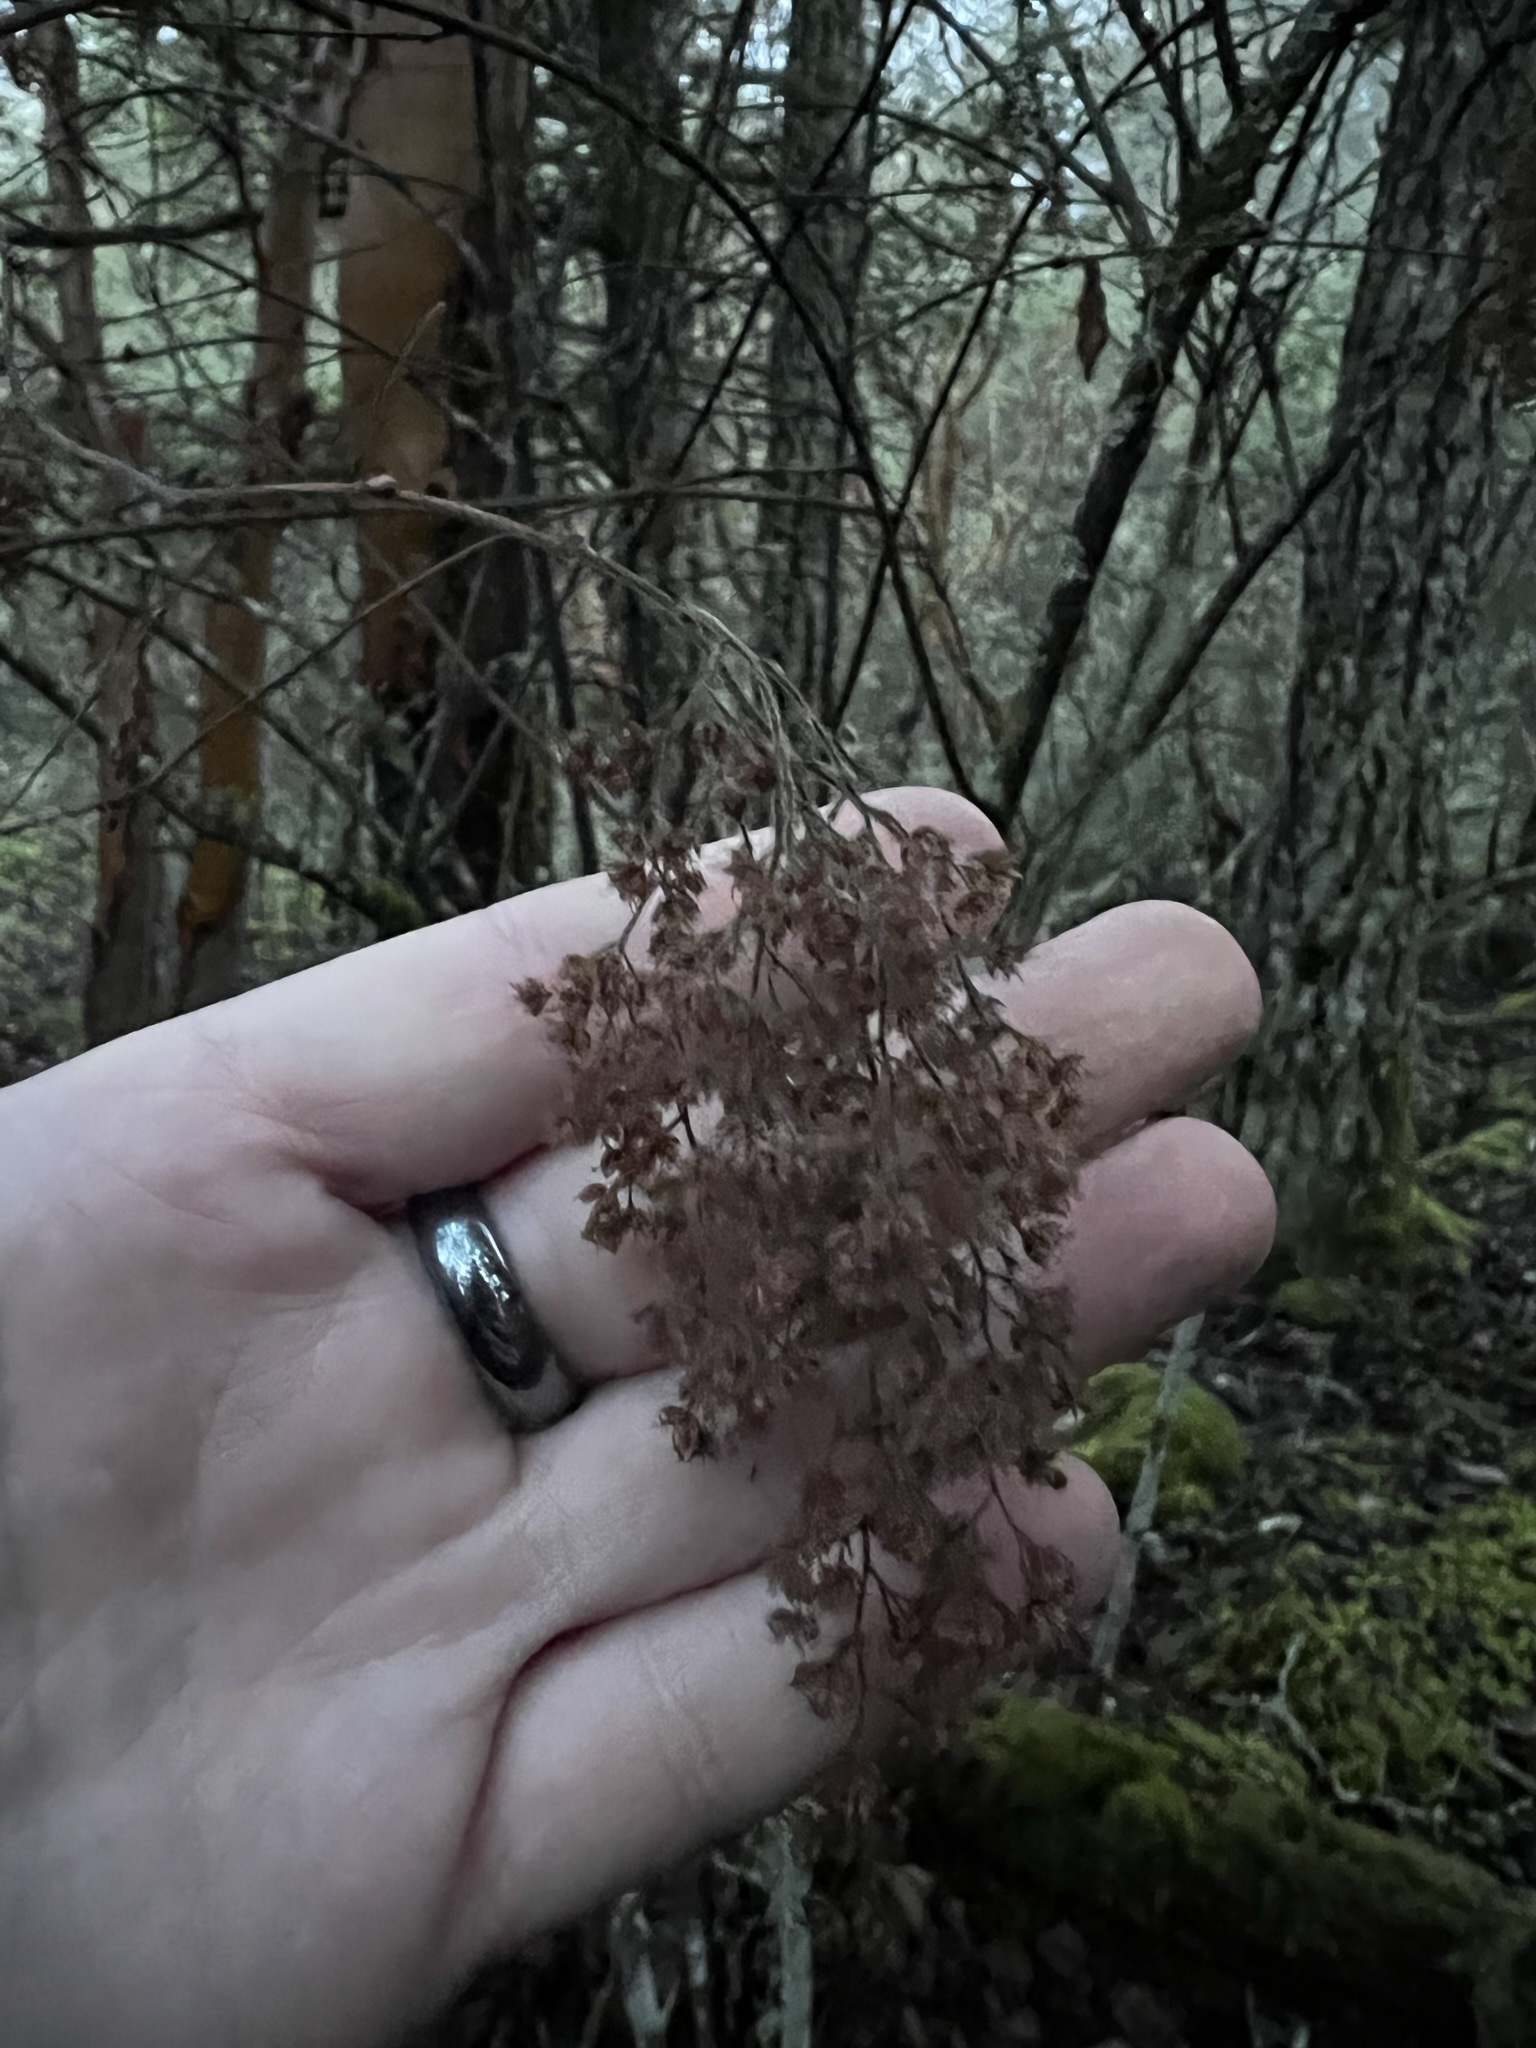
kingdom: Plantae
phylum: Tracheophyta
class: Magnoliopsida
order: Rosales
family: Rosaceae
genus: Holodiscus
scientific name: Holodiscus discolor
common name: Oceanspray
